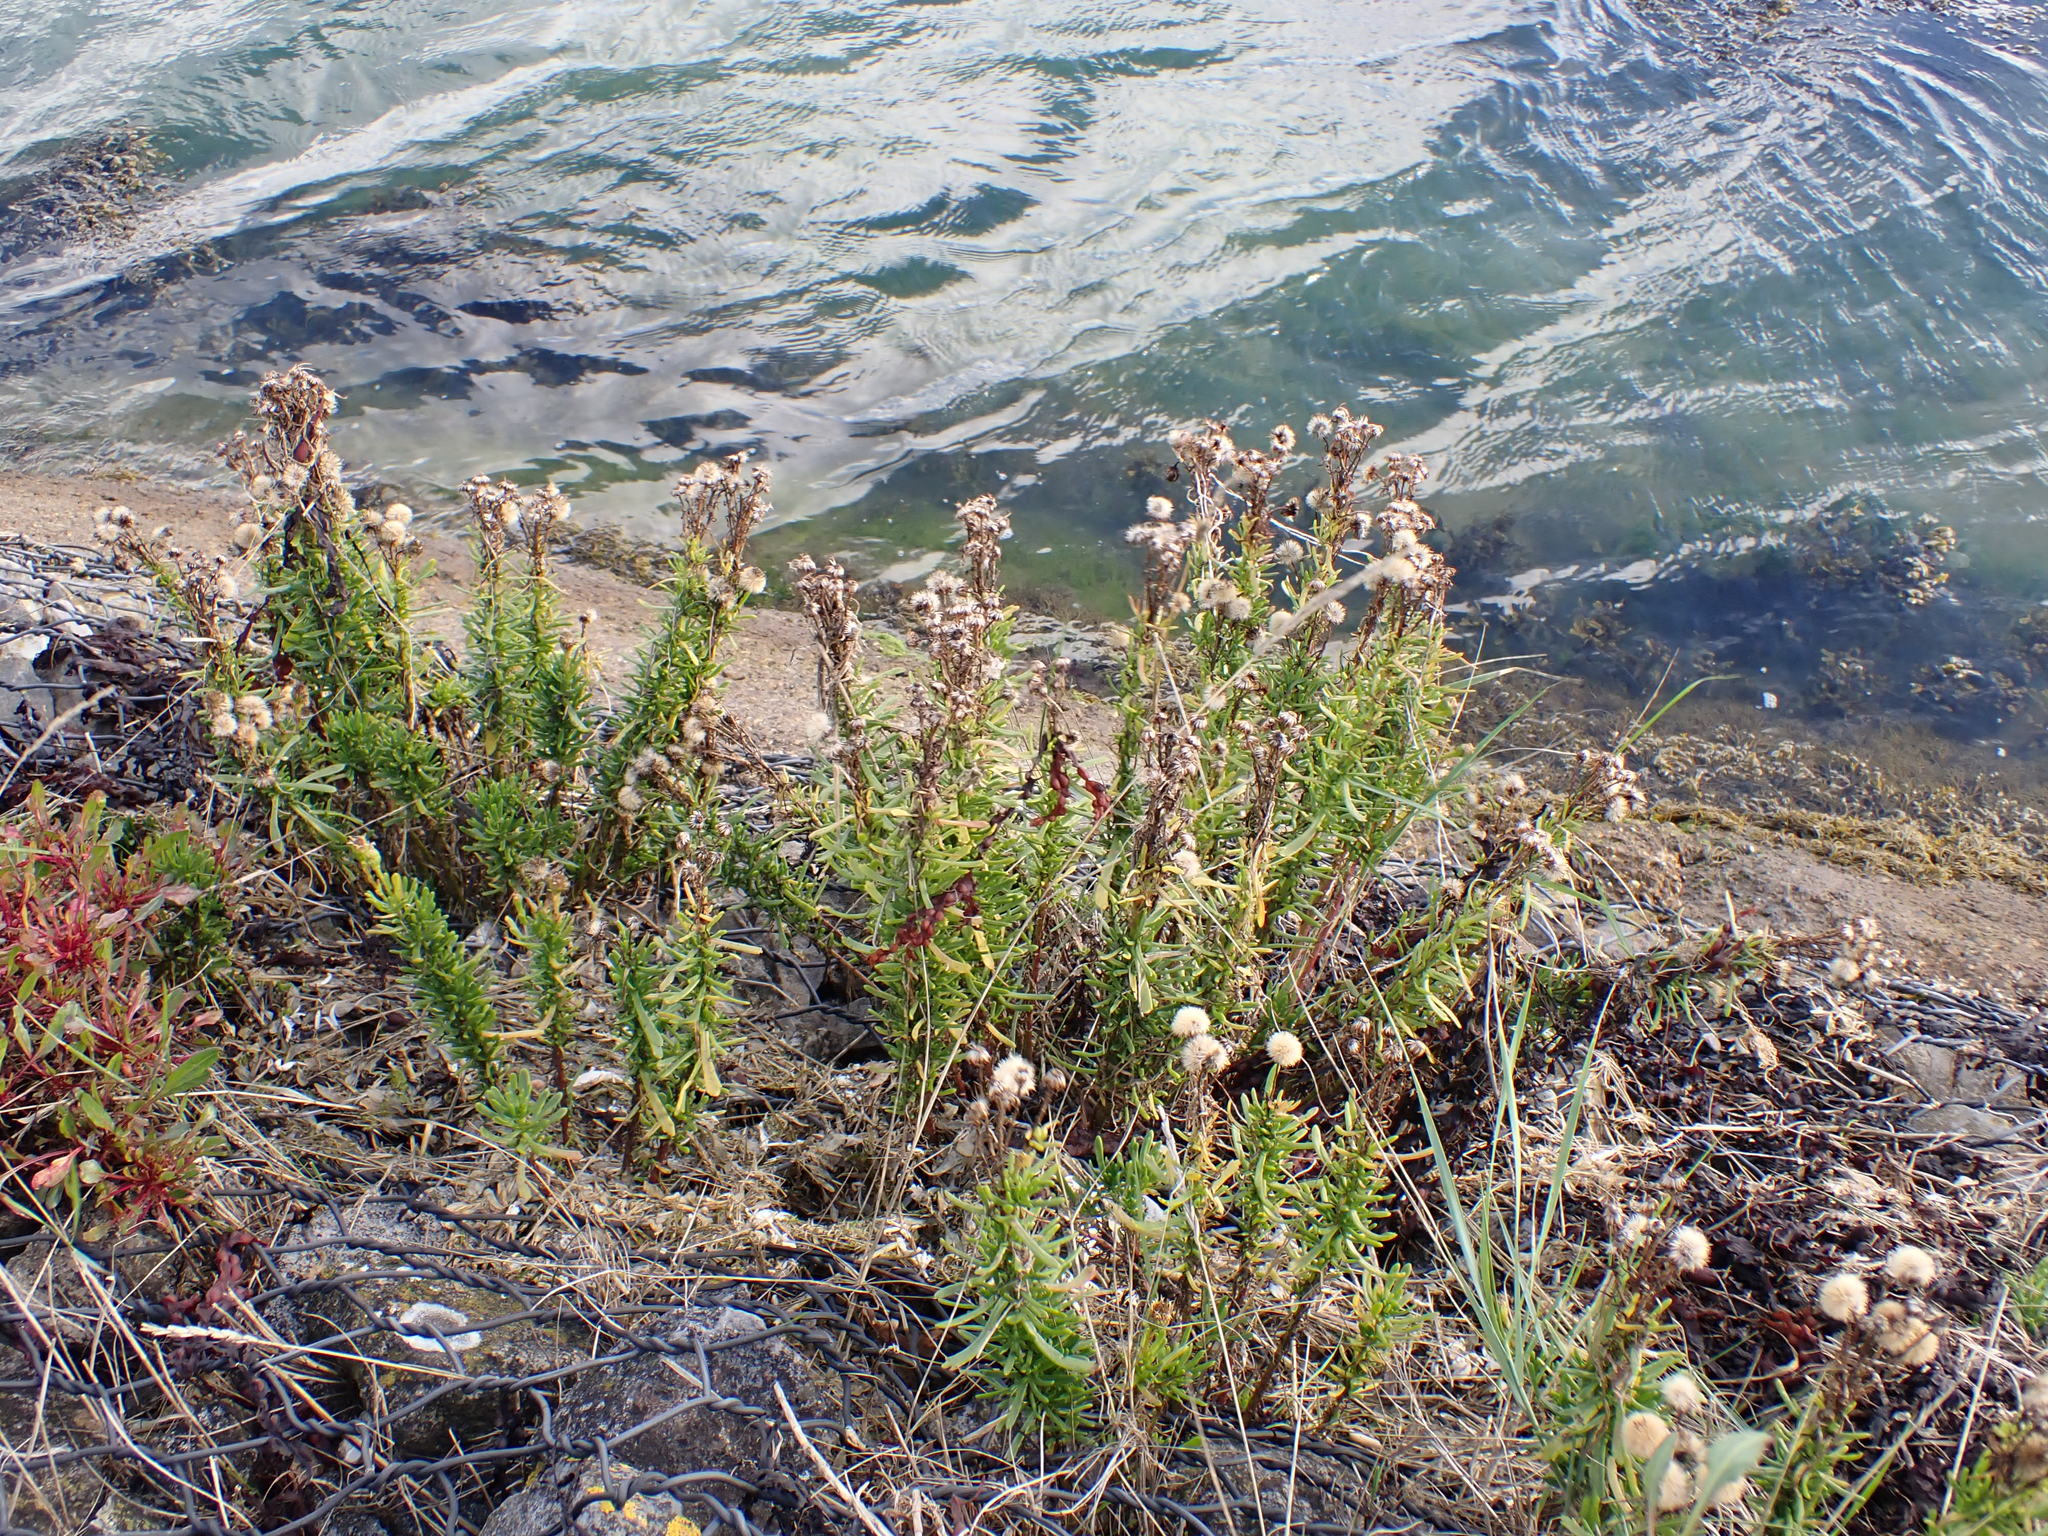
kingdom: Plantae
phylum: Tracheophyta
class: Magnoliopsida
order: Asterales
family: Asteraceae
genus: Limbarda
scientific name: Limbarda crithmoides
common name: Golden samphire
